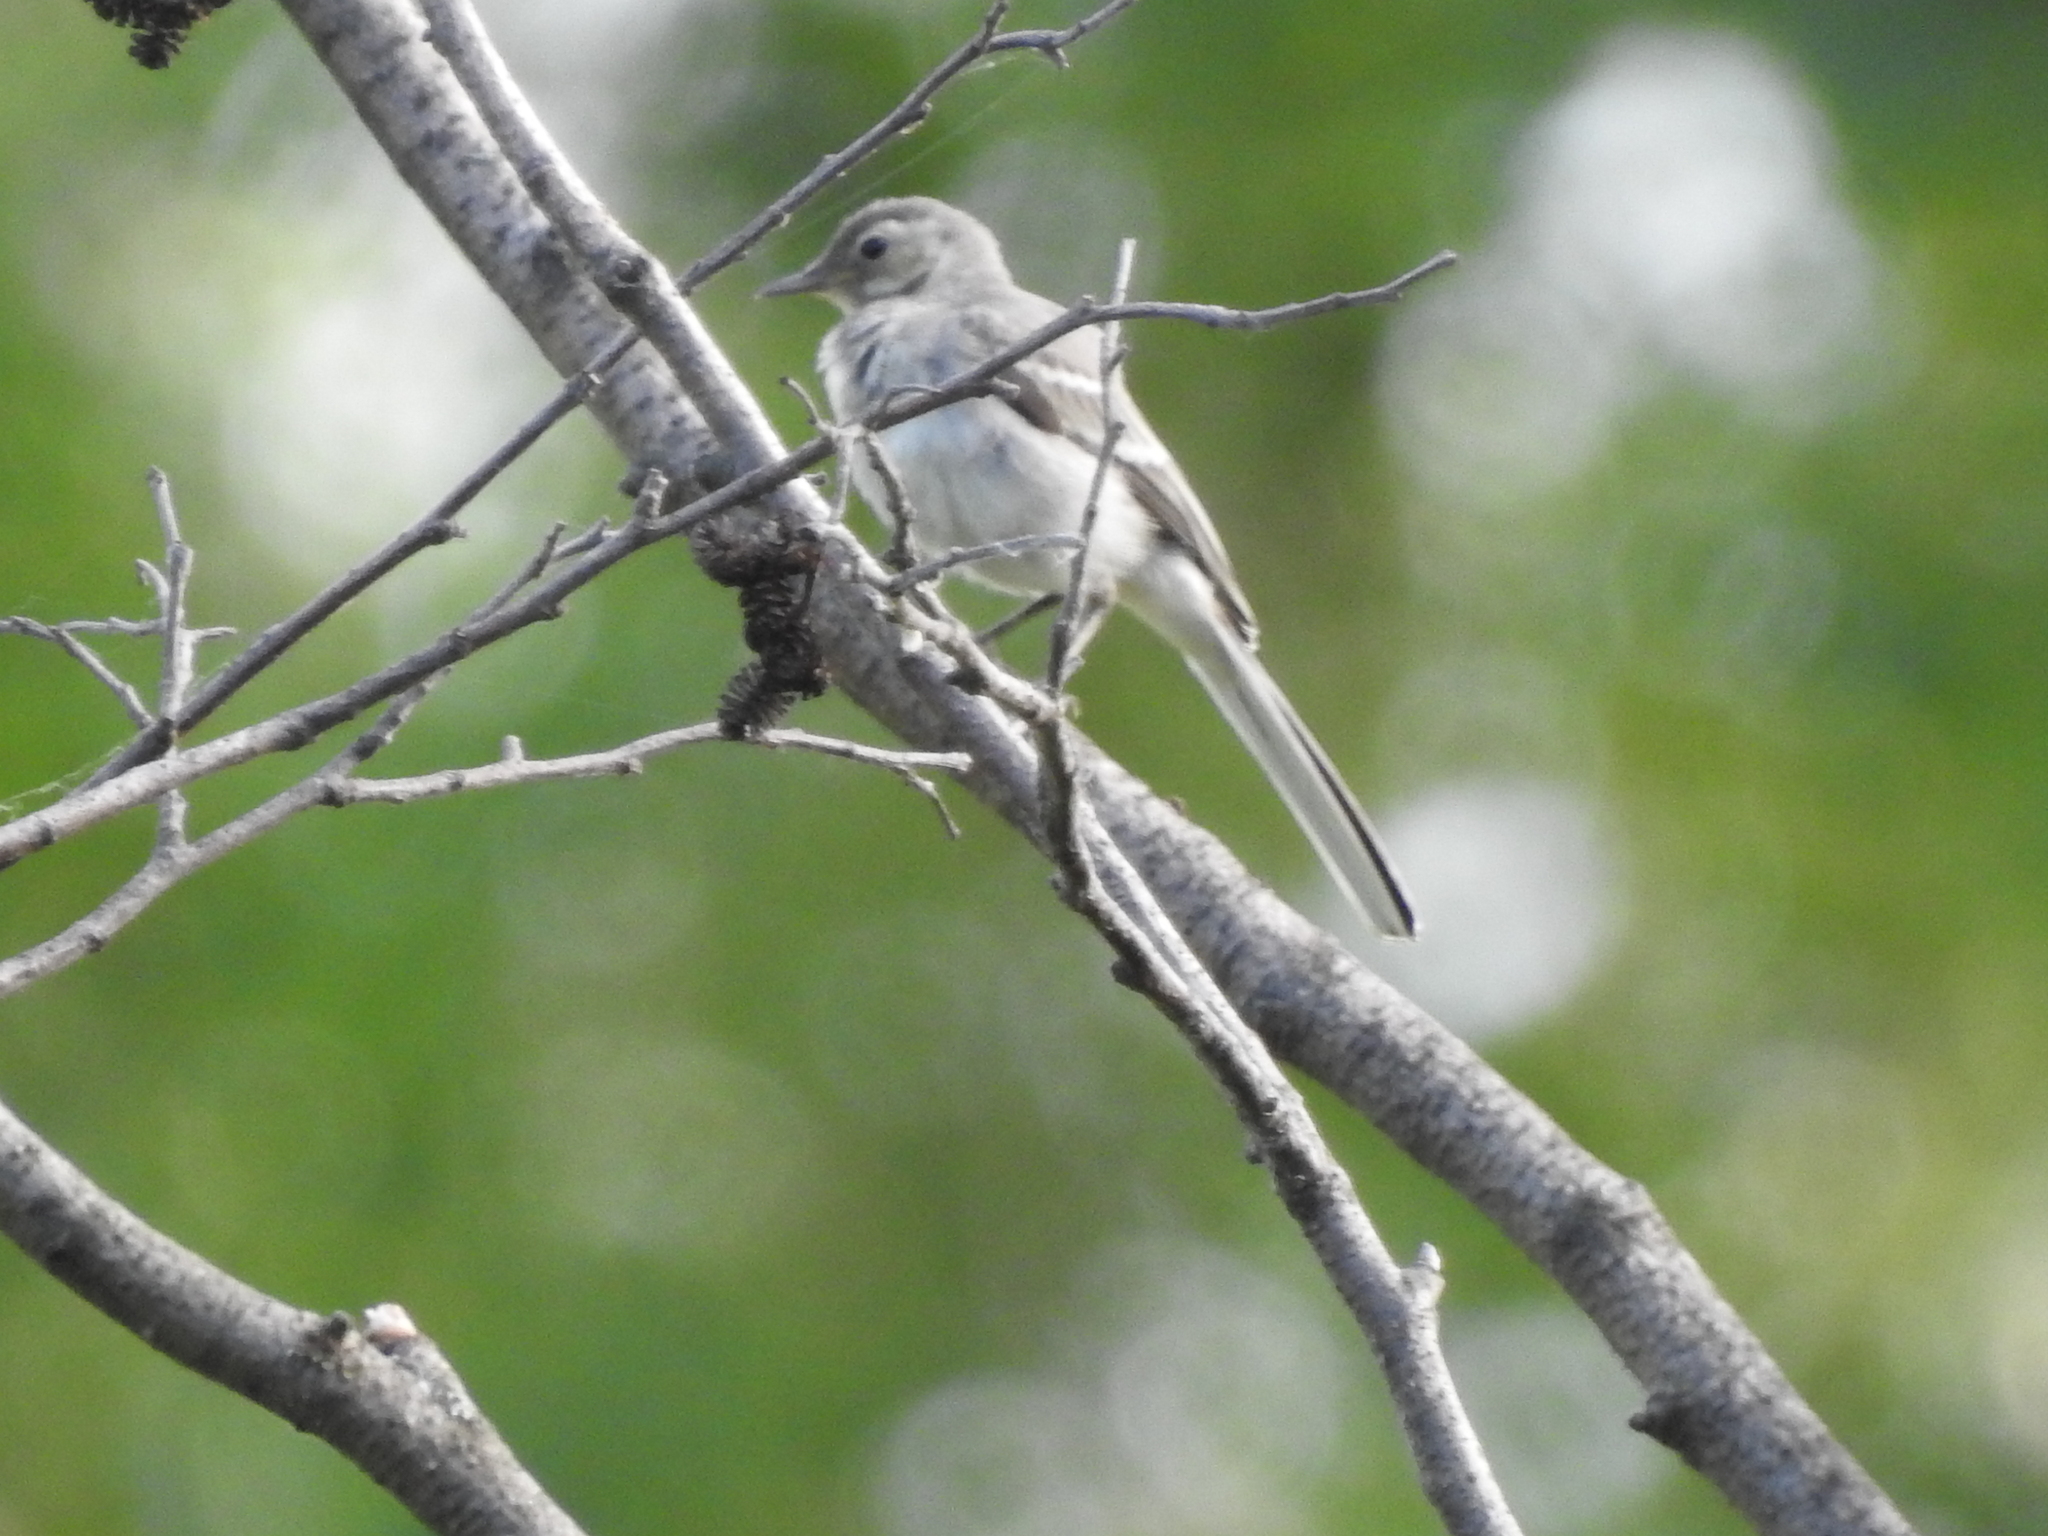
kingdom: Animalia
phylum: Chordata
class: Aves
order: Passeriformes
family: Motacillidae
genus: Motacilla
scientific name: Motacilla alba
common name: White wagtail
